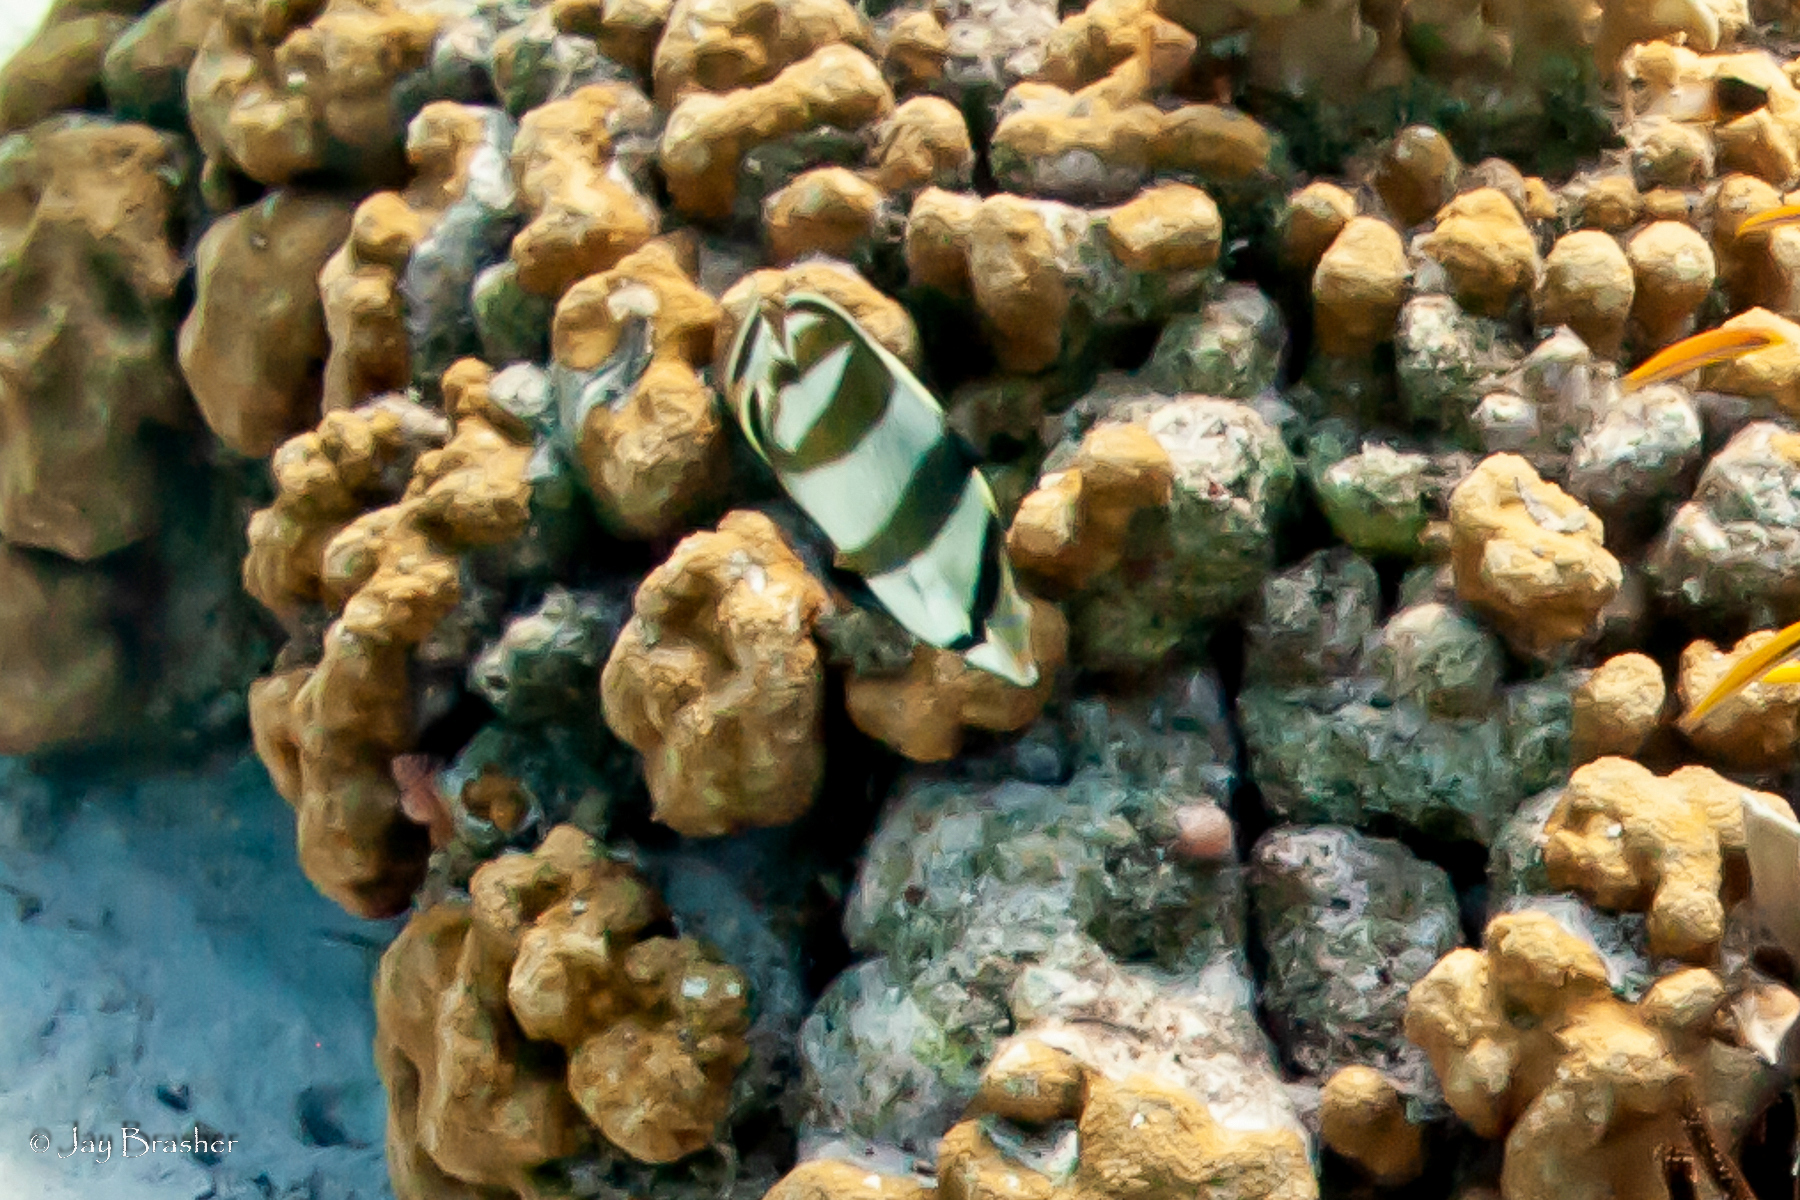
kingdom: Animalia
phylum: Chordata
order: Perciformes
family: Chaetodontidae
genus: Chaetodon
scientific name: Chaetodon striatus
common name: Banded butterflyfish
